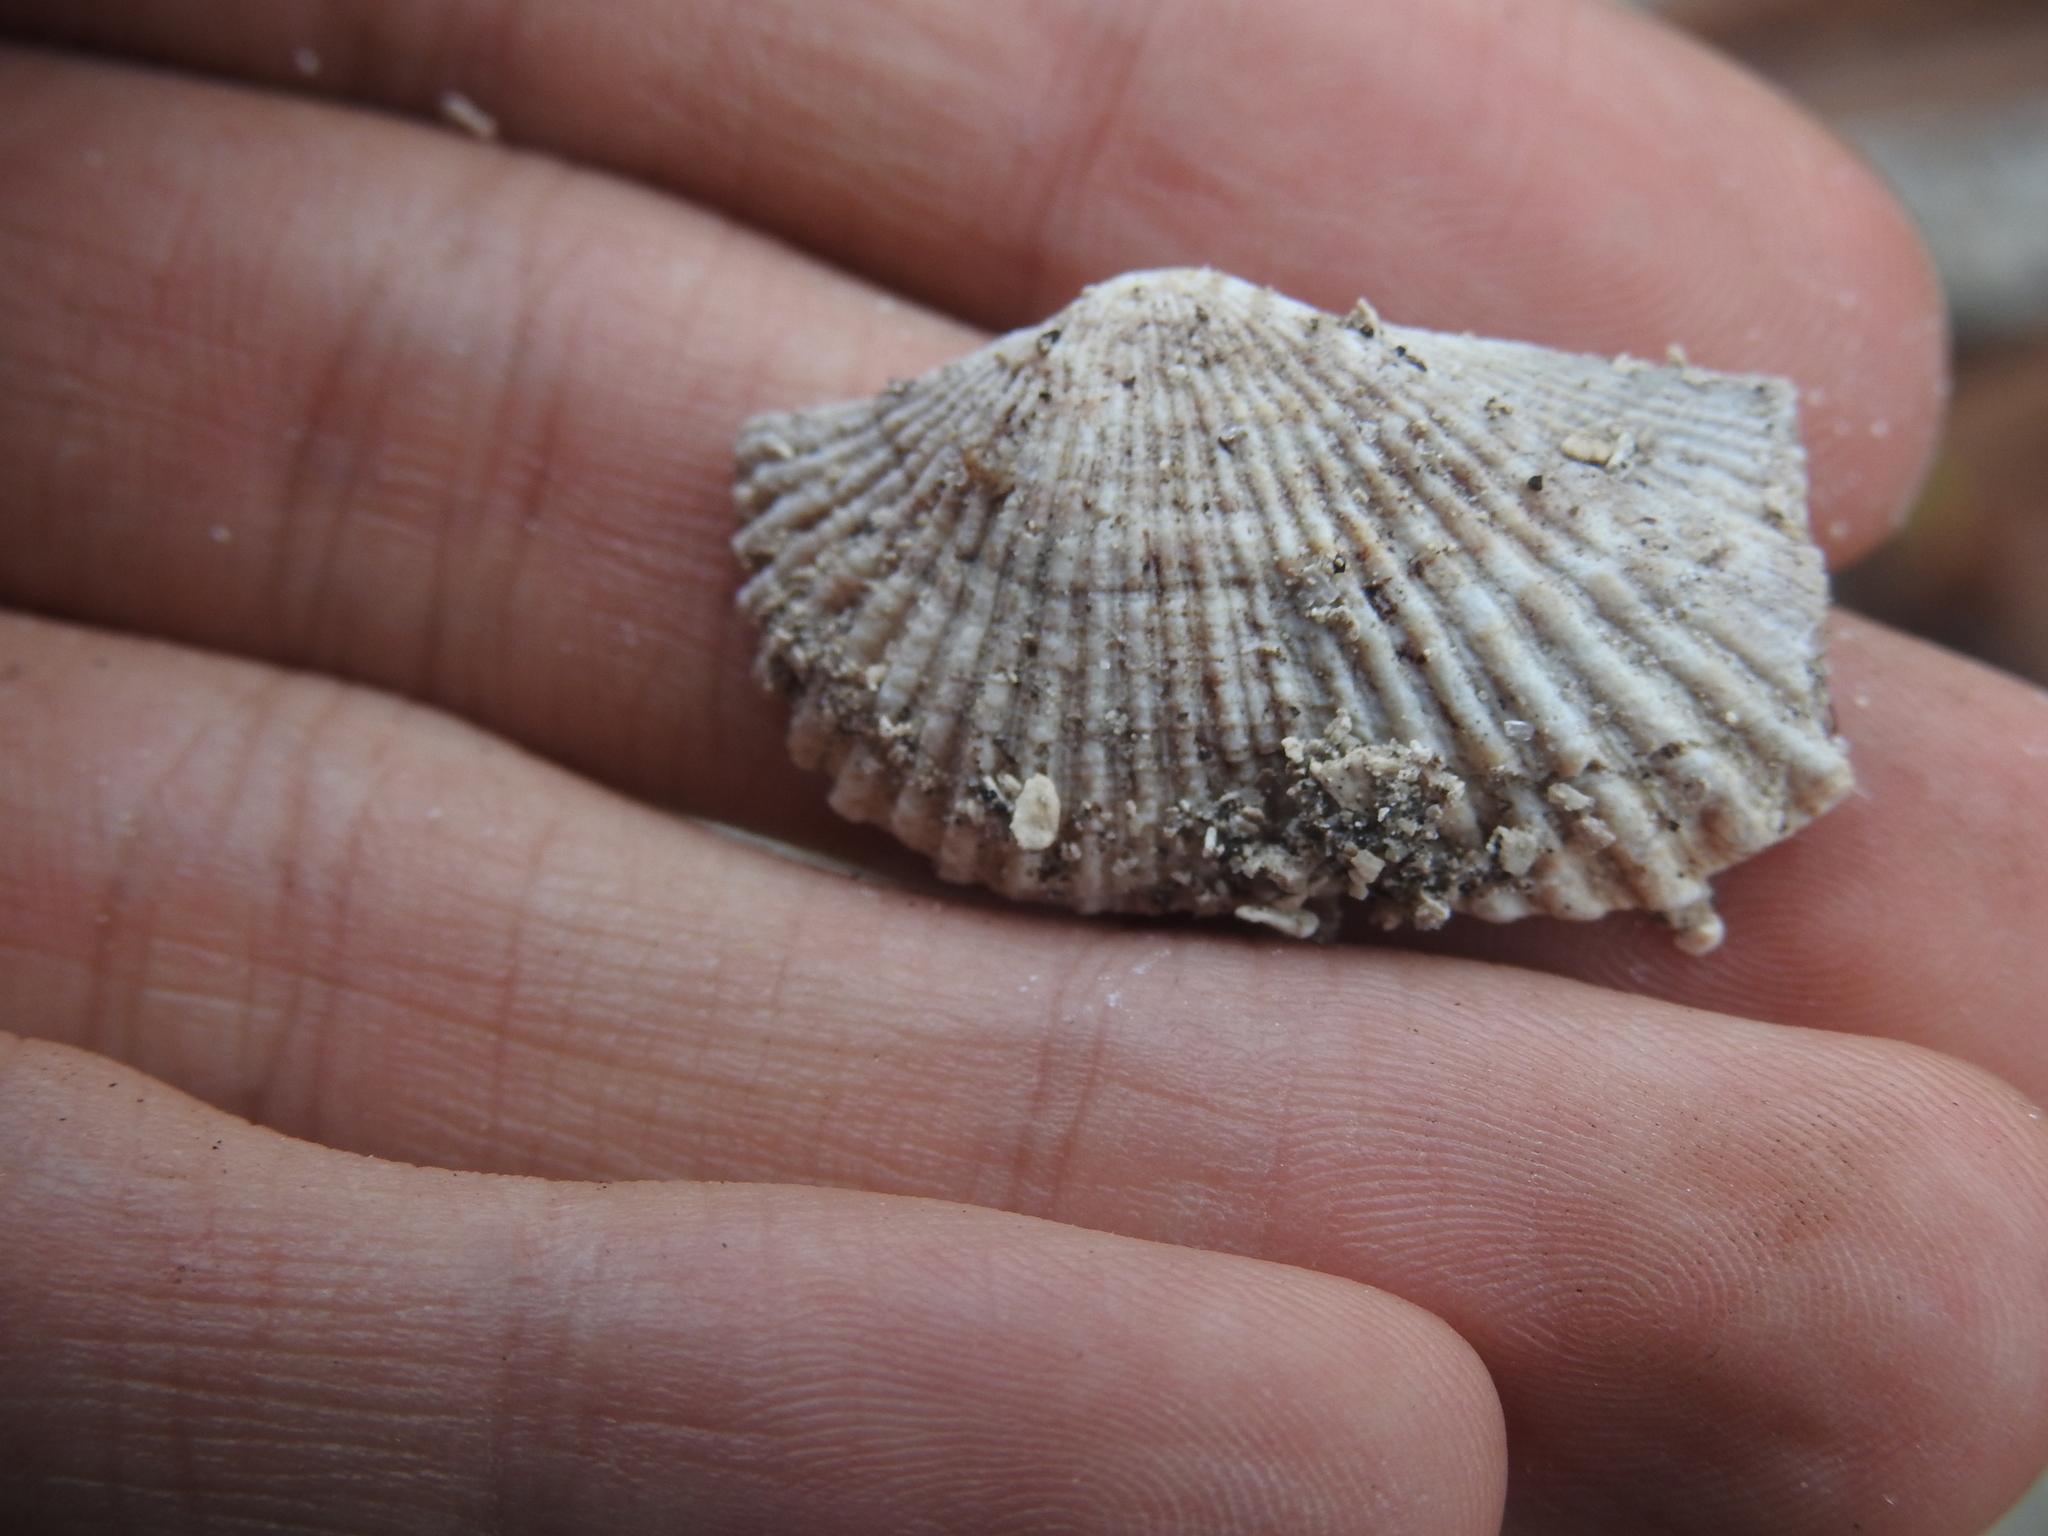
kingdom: Animalia
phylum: Mollusca
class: Bivalvia
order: Arcida
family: Arcidae
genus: Arca
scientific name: Arca zebra
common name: Atlantic turkey wing
